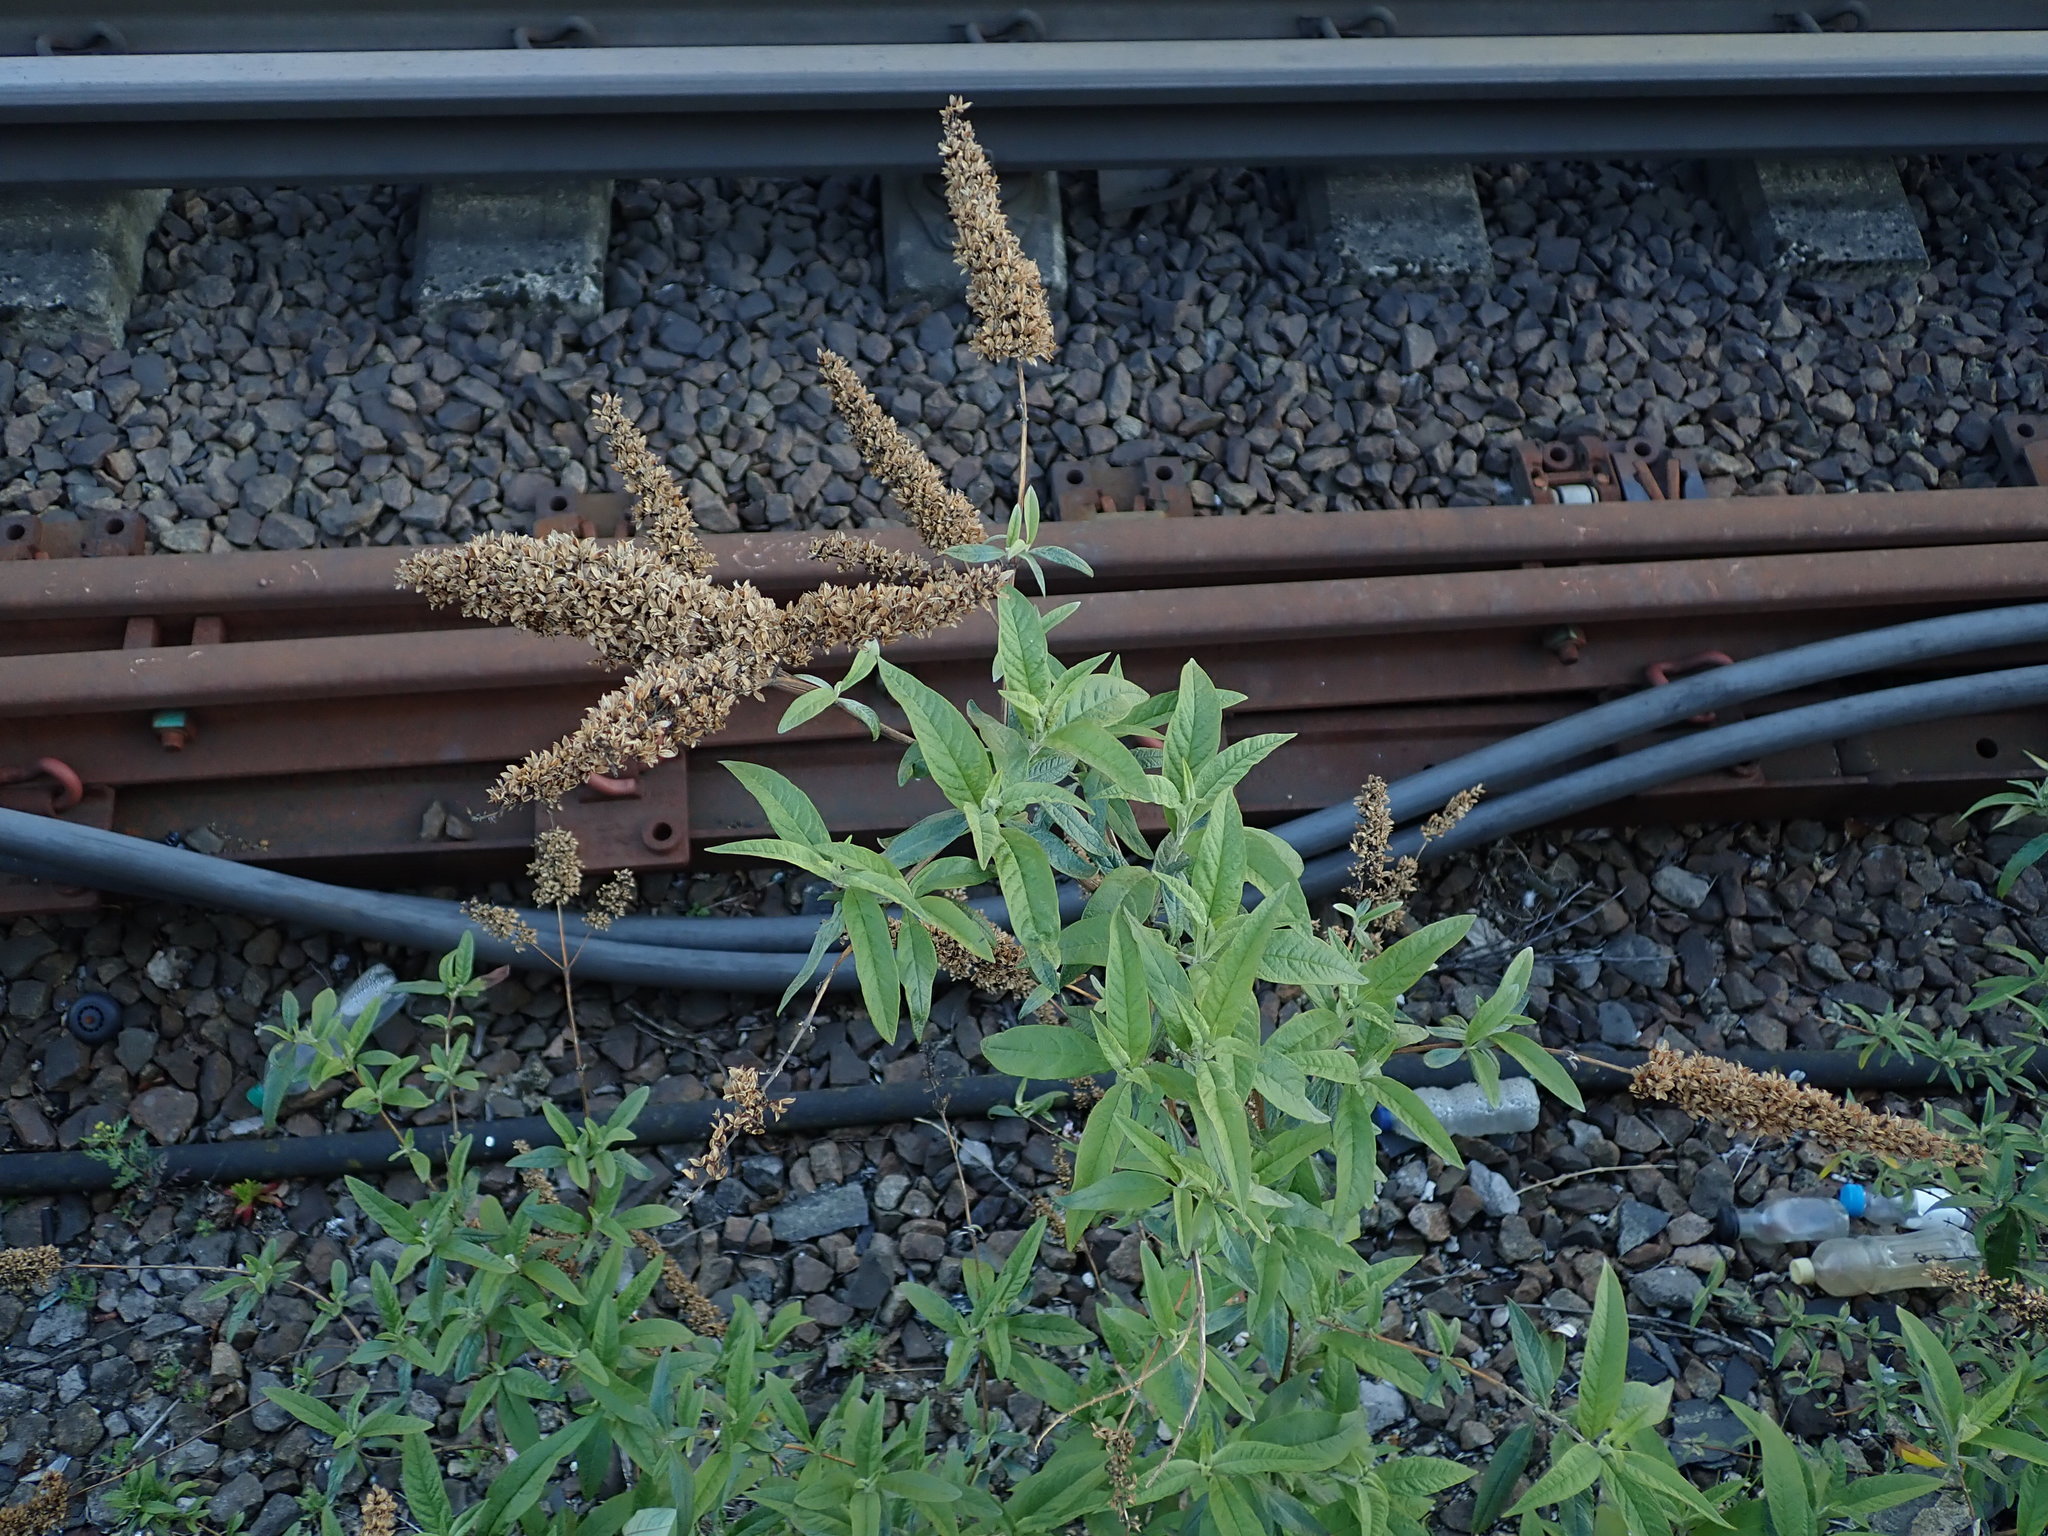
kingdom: Plantae
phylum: Tracheophyta
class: Magnoliopsida
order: Lamiales
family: Scrophulariaceae
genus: Buddleja
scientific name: Buddleja davidii
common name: Butterfly-bush
